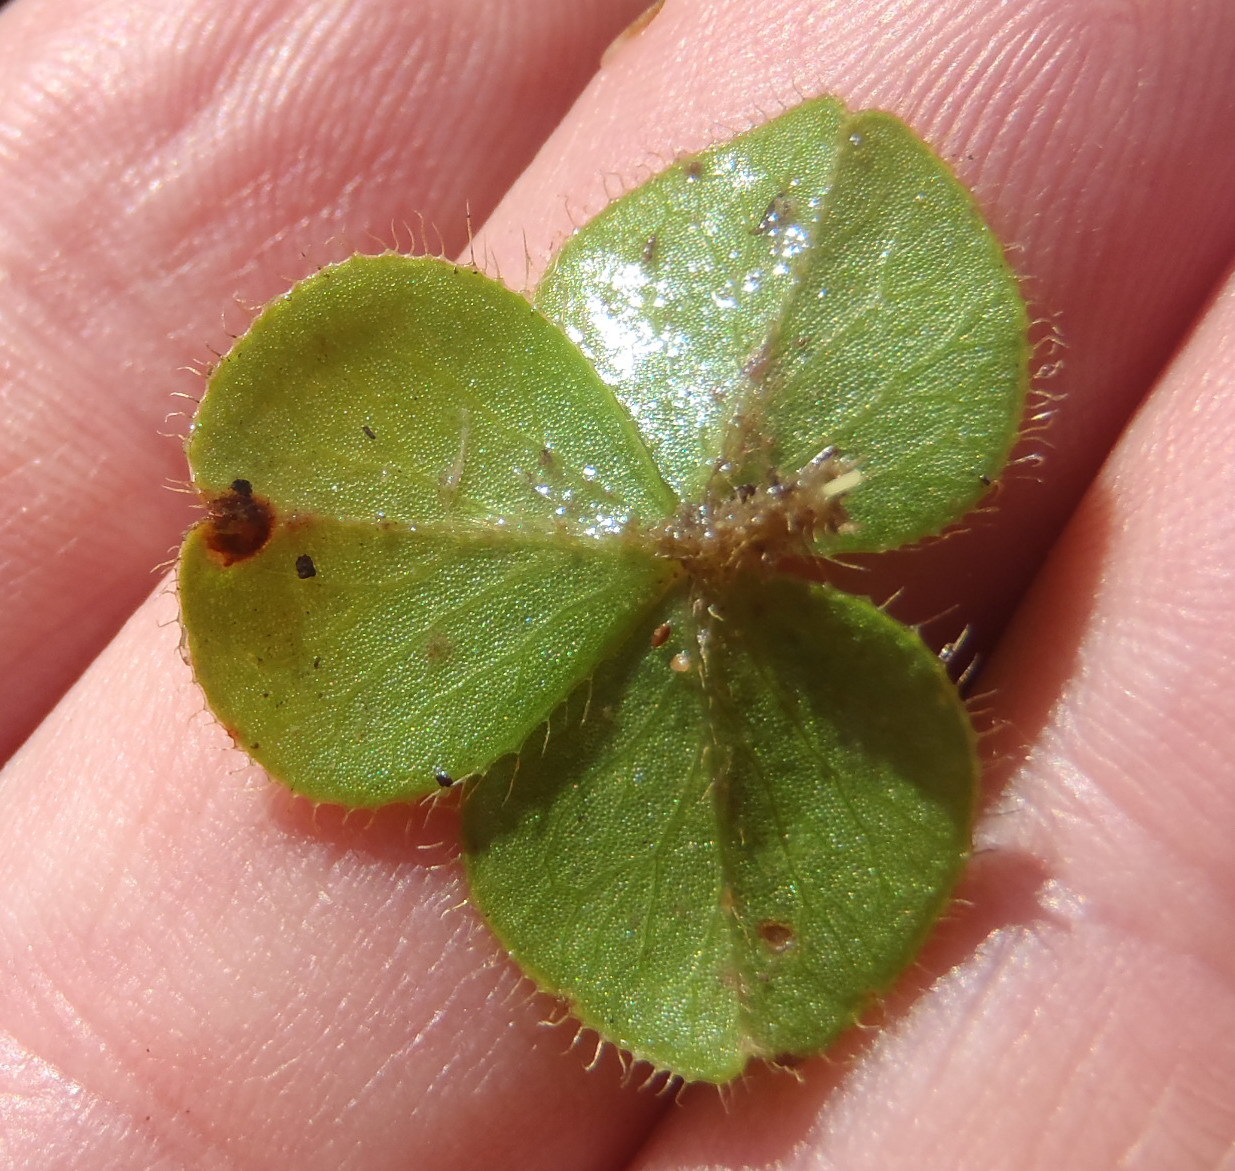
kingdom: Plantae
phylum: Tracheophyta
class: Magnoliopsida
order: Oxalidales
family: Oxalidaceae
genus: Oxalis
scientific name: Oxalis eckloniana
